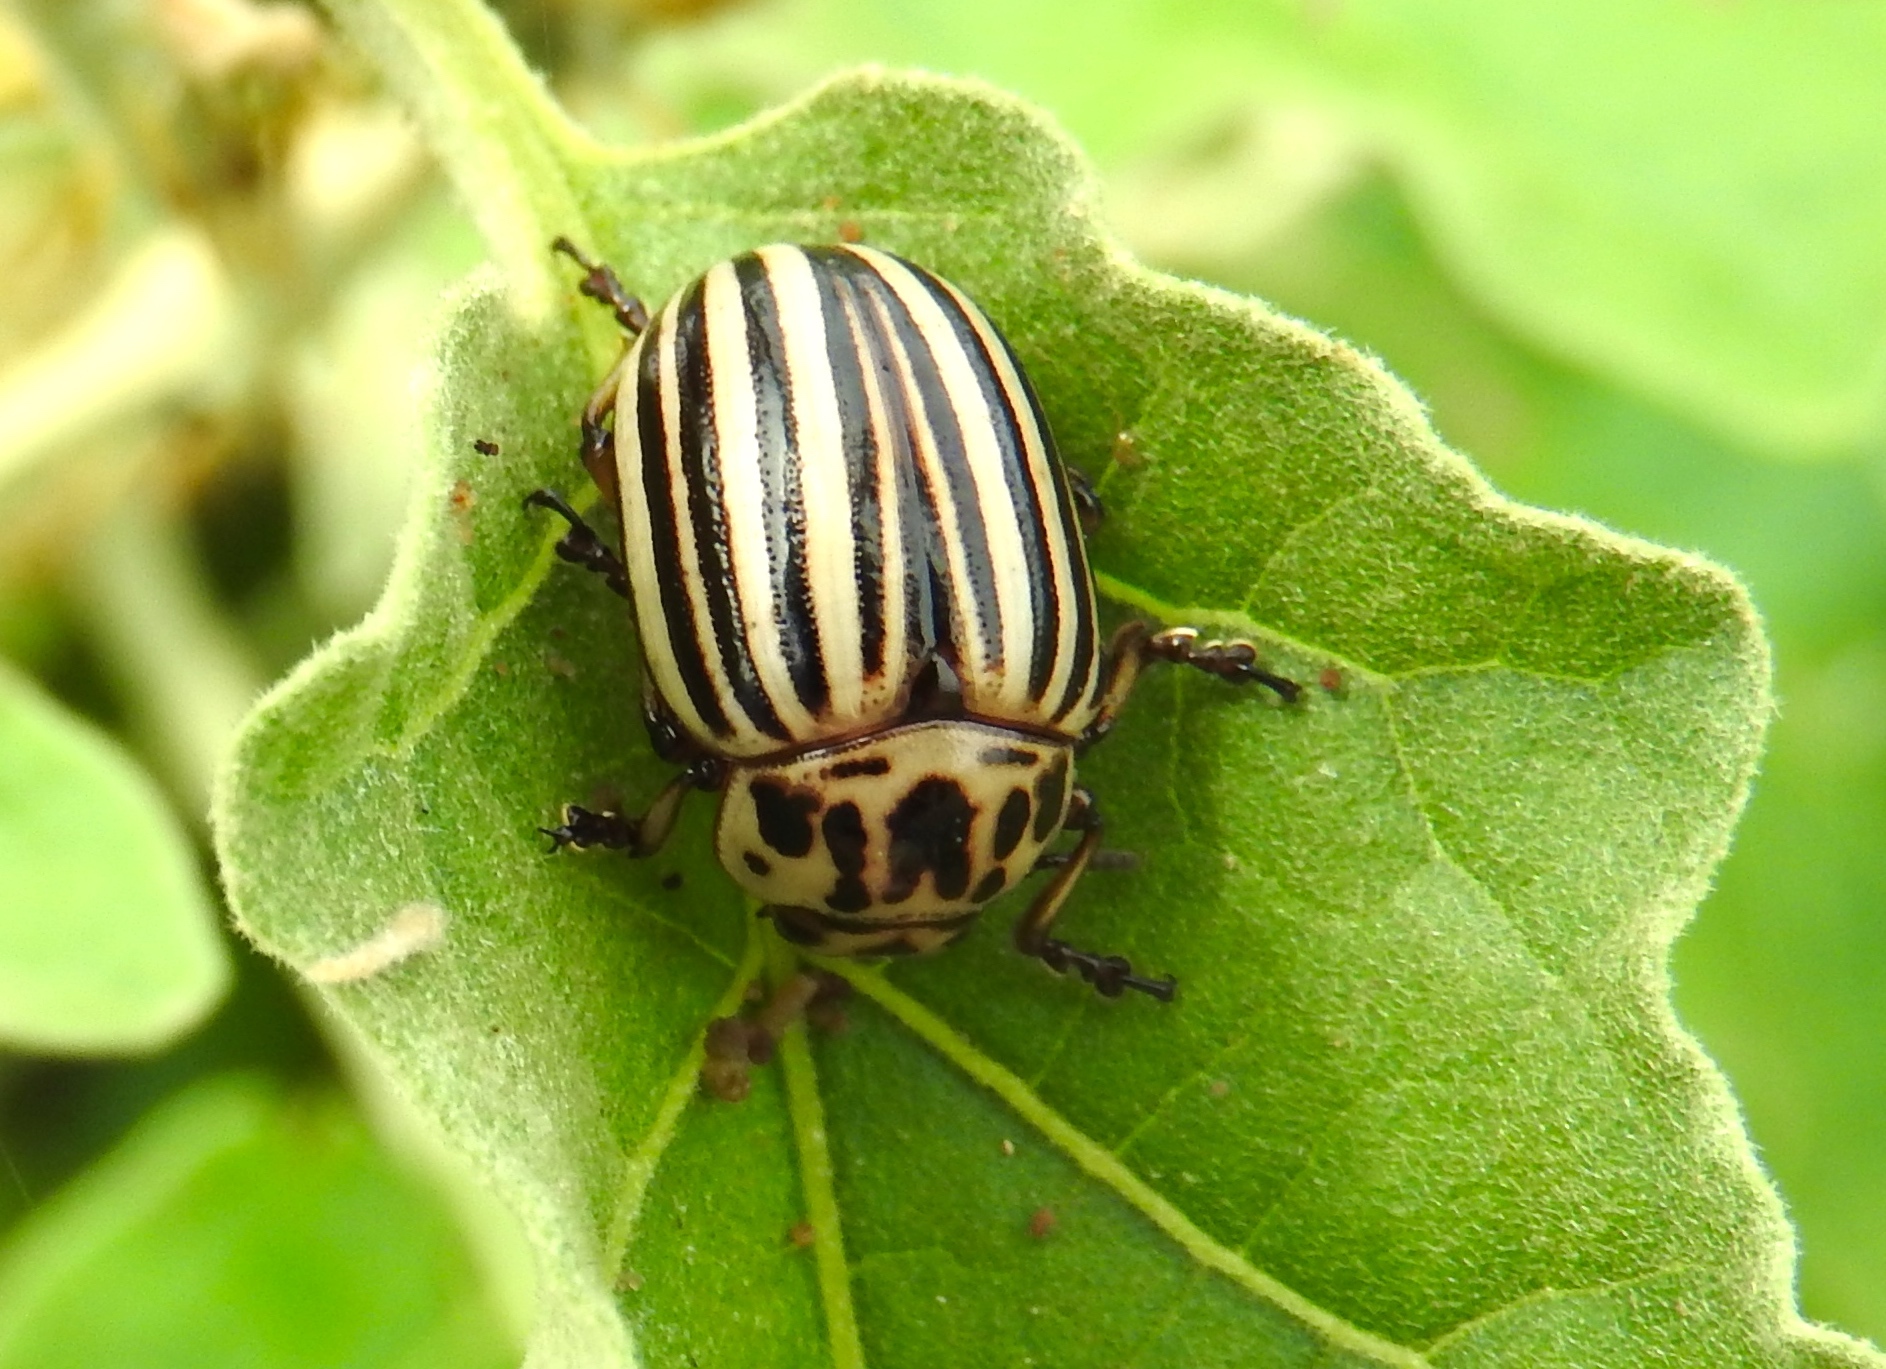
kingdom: Animalia
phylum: Arthropoda
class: Insecta
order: Coleoptera
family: Chrysomelidae
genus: Leptinotarsa
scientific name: Leptinotarsa decemlineata
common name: Colorado potato beetle
